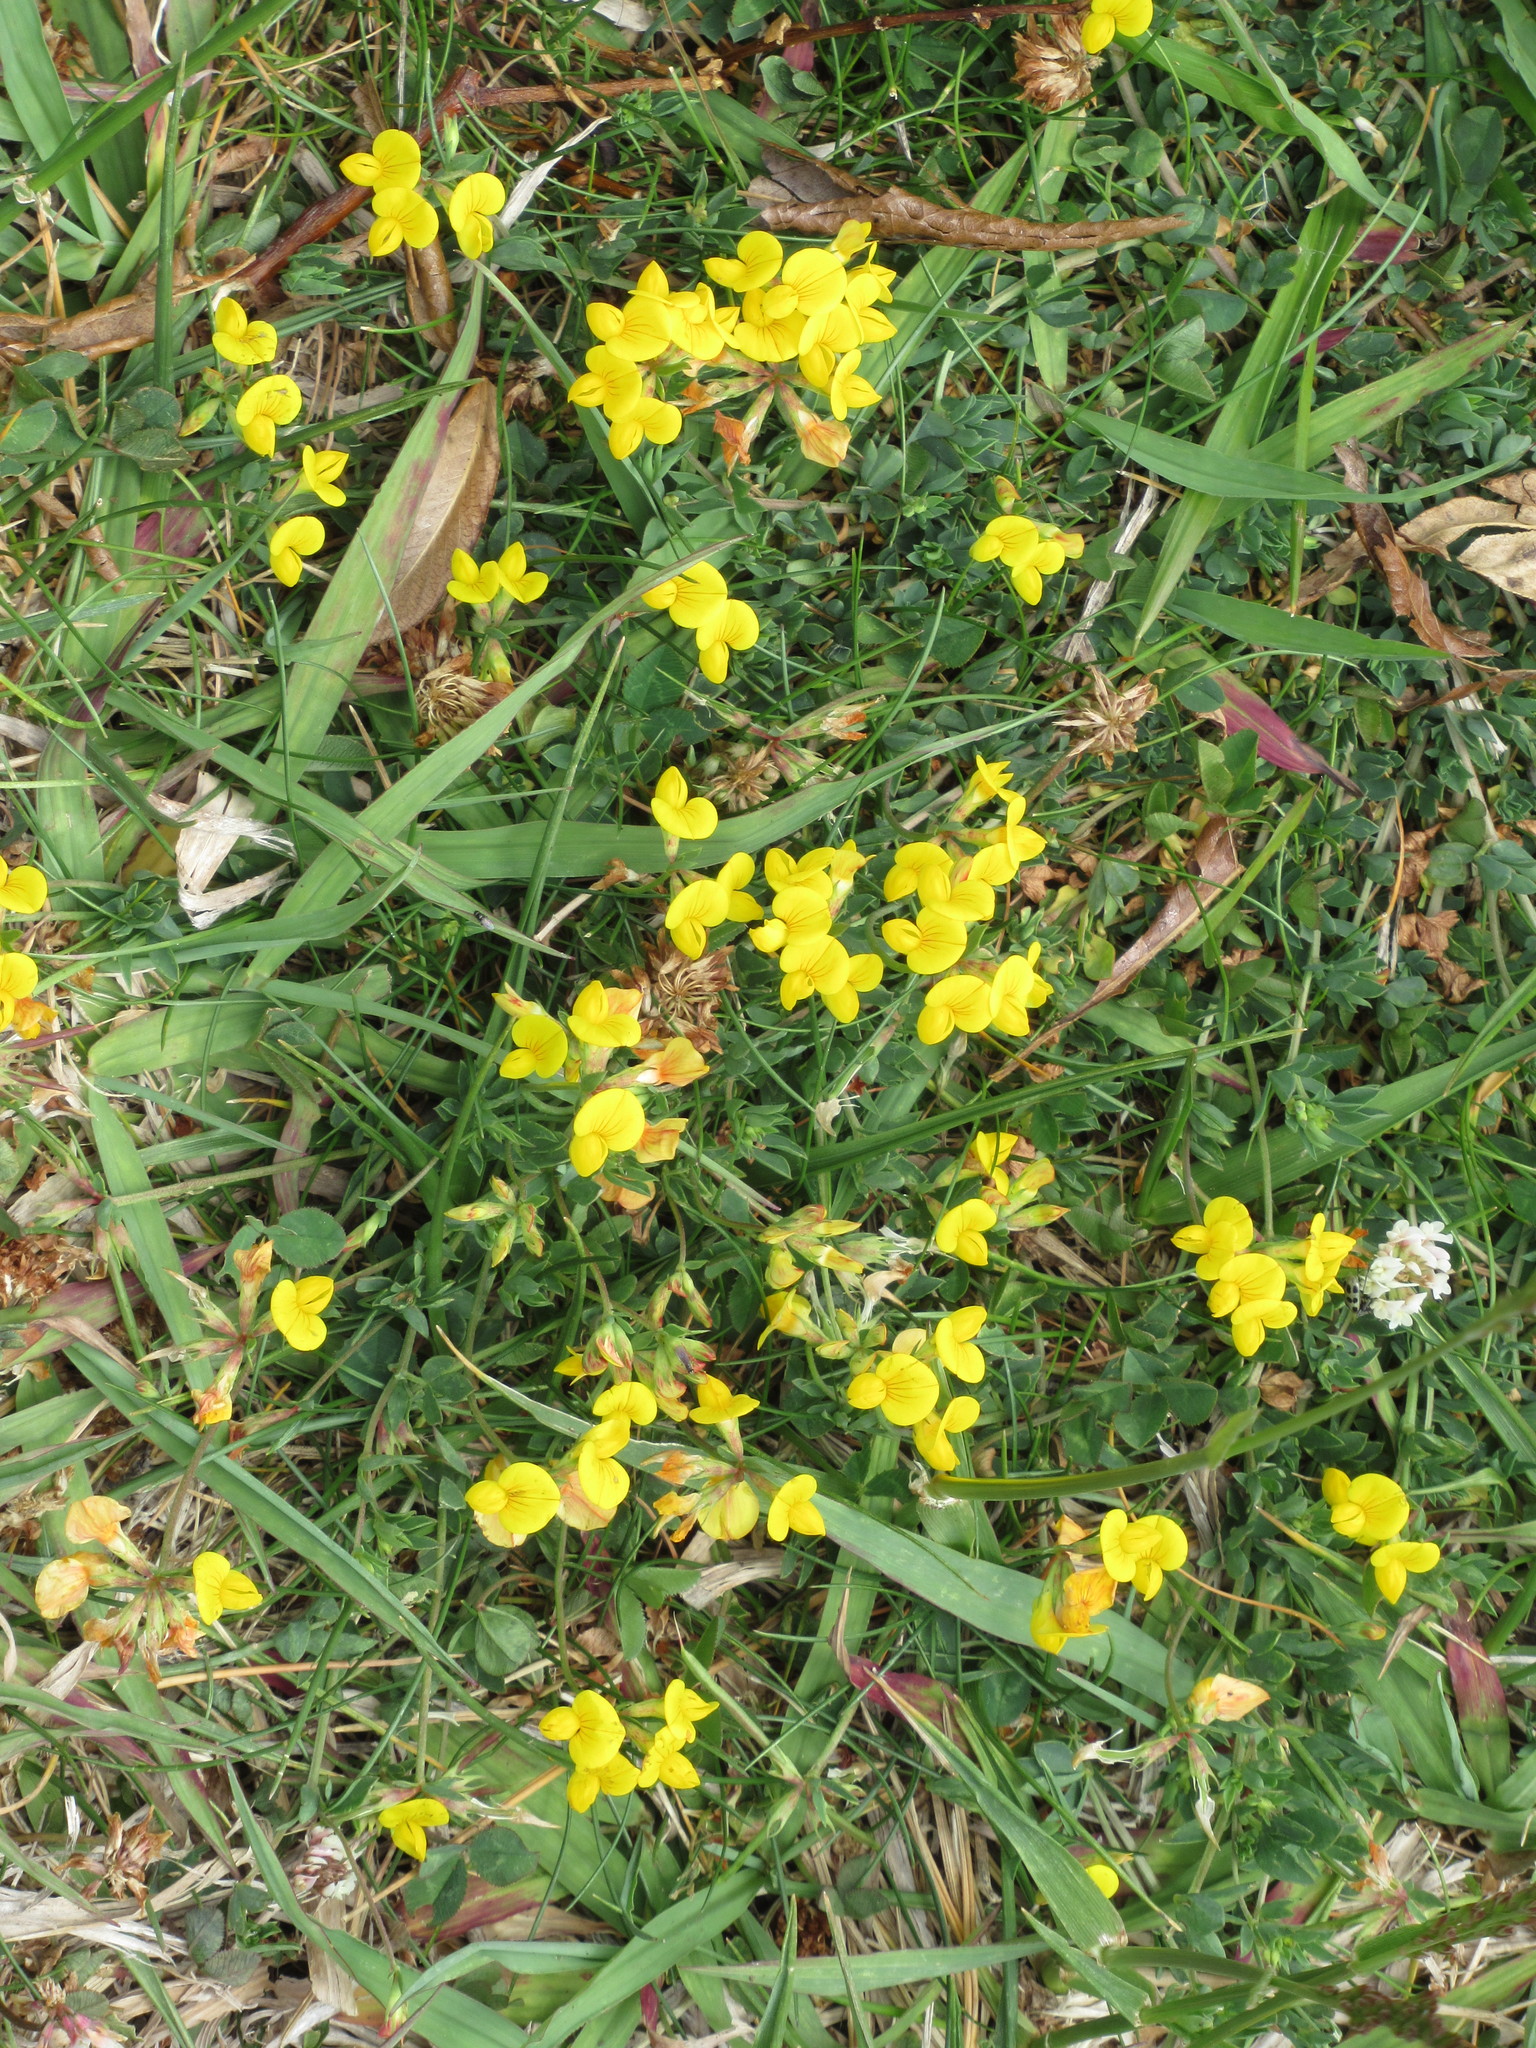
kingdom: Plantae
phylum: Tracheophyta
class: Magnoliopsida
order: Fabales
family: Fabaceae
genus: Lotus
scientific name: Lotus corniculatus
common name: Common bird's-foot-trefoil
